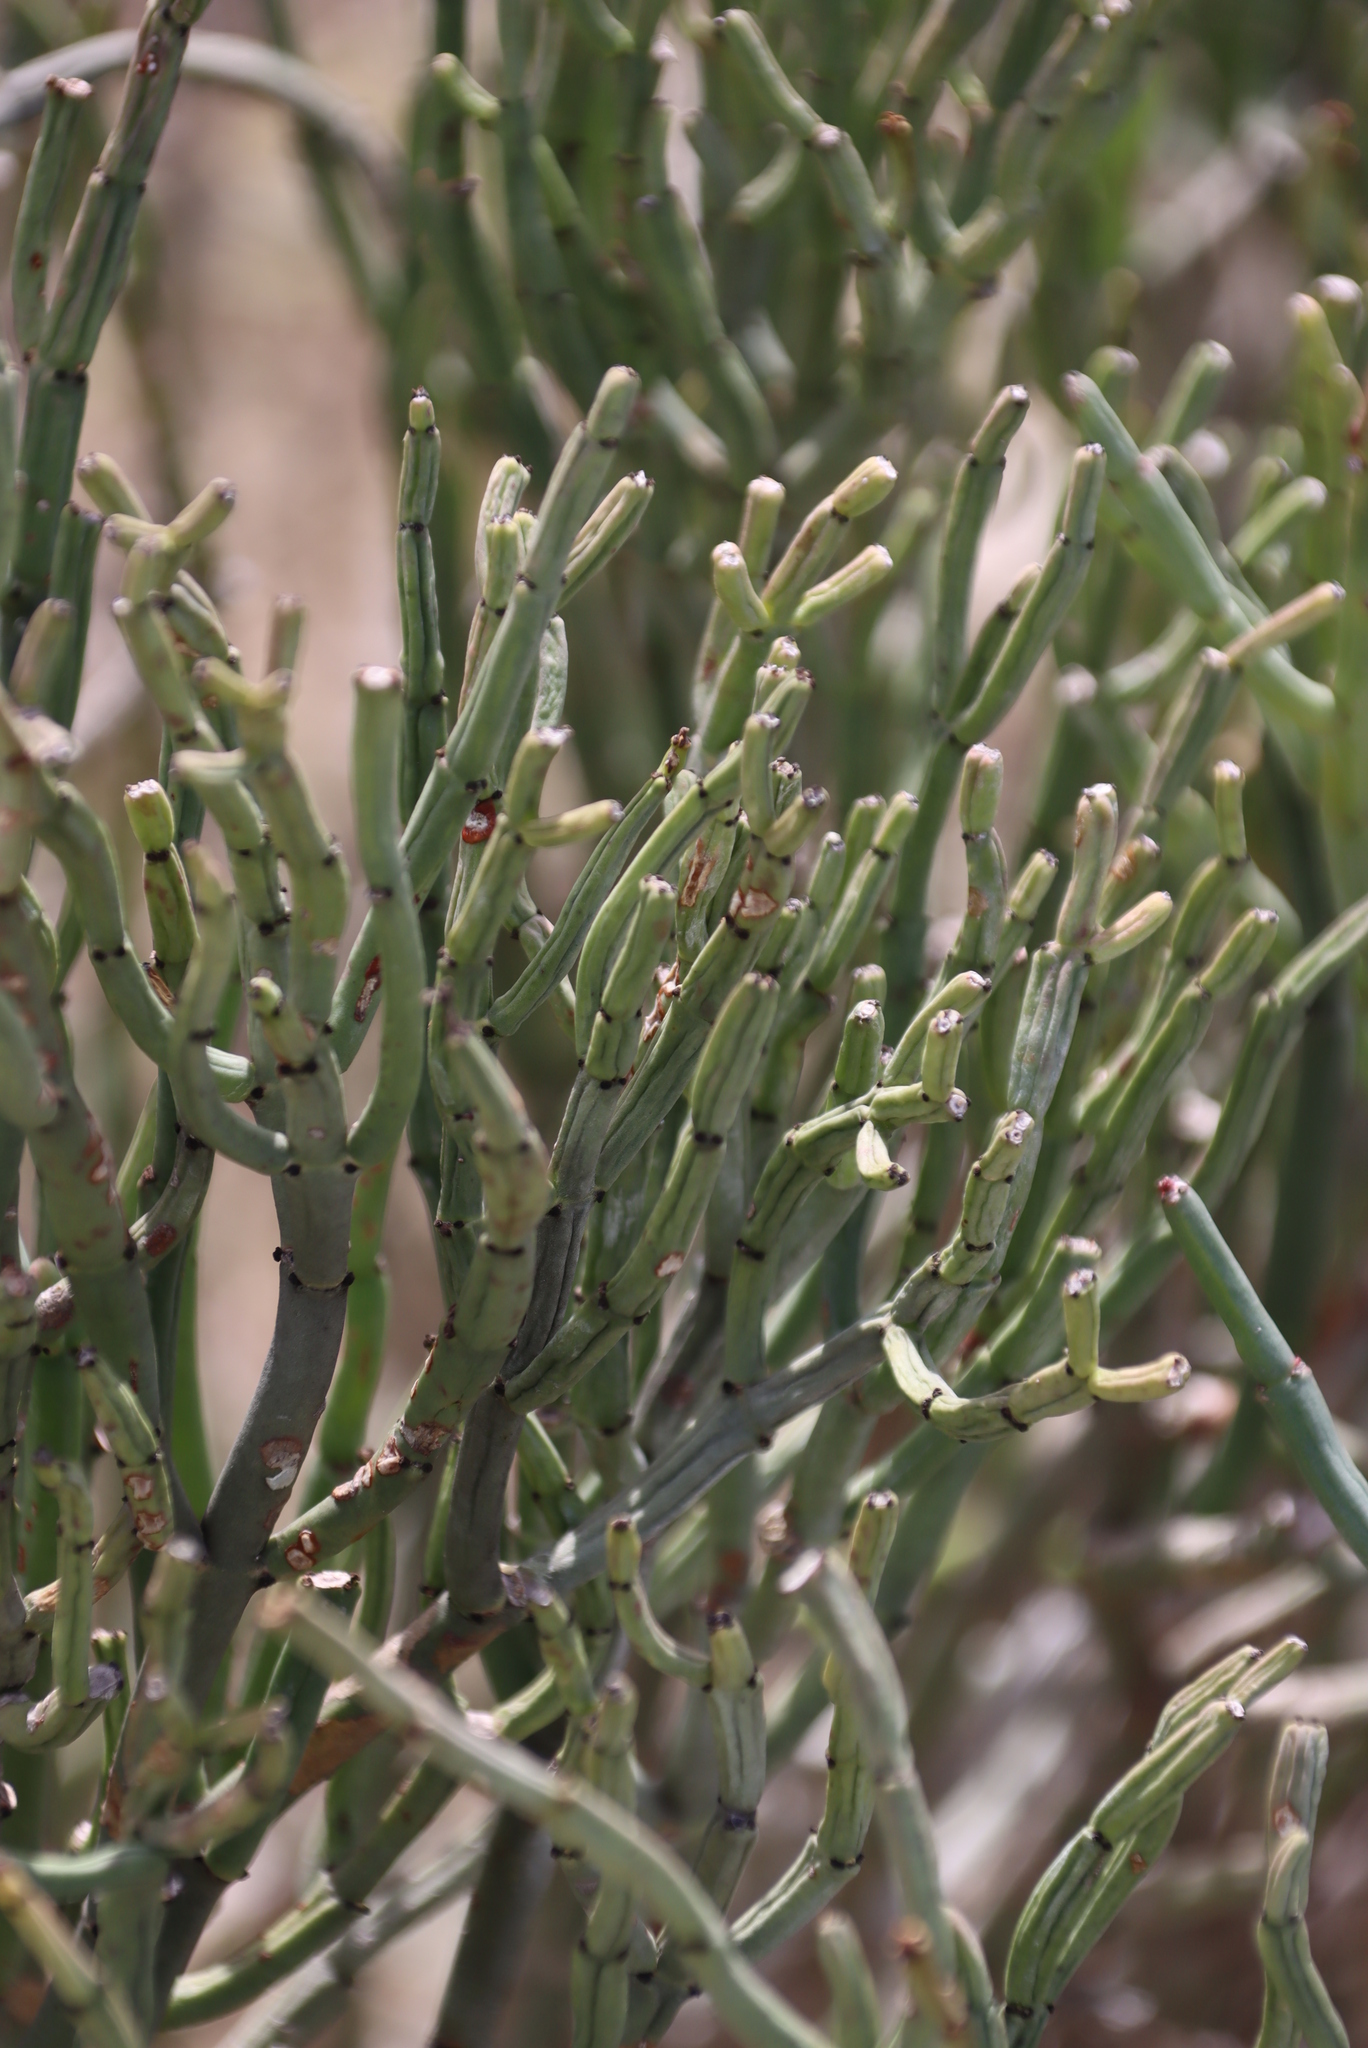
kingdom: Plantae
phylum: Tracheophyta
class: Magnoliopsida
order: Malpighiales
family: Euphorbiaceae
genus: Euphorbia
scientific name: Euphorbia burmanni
